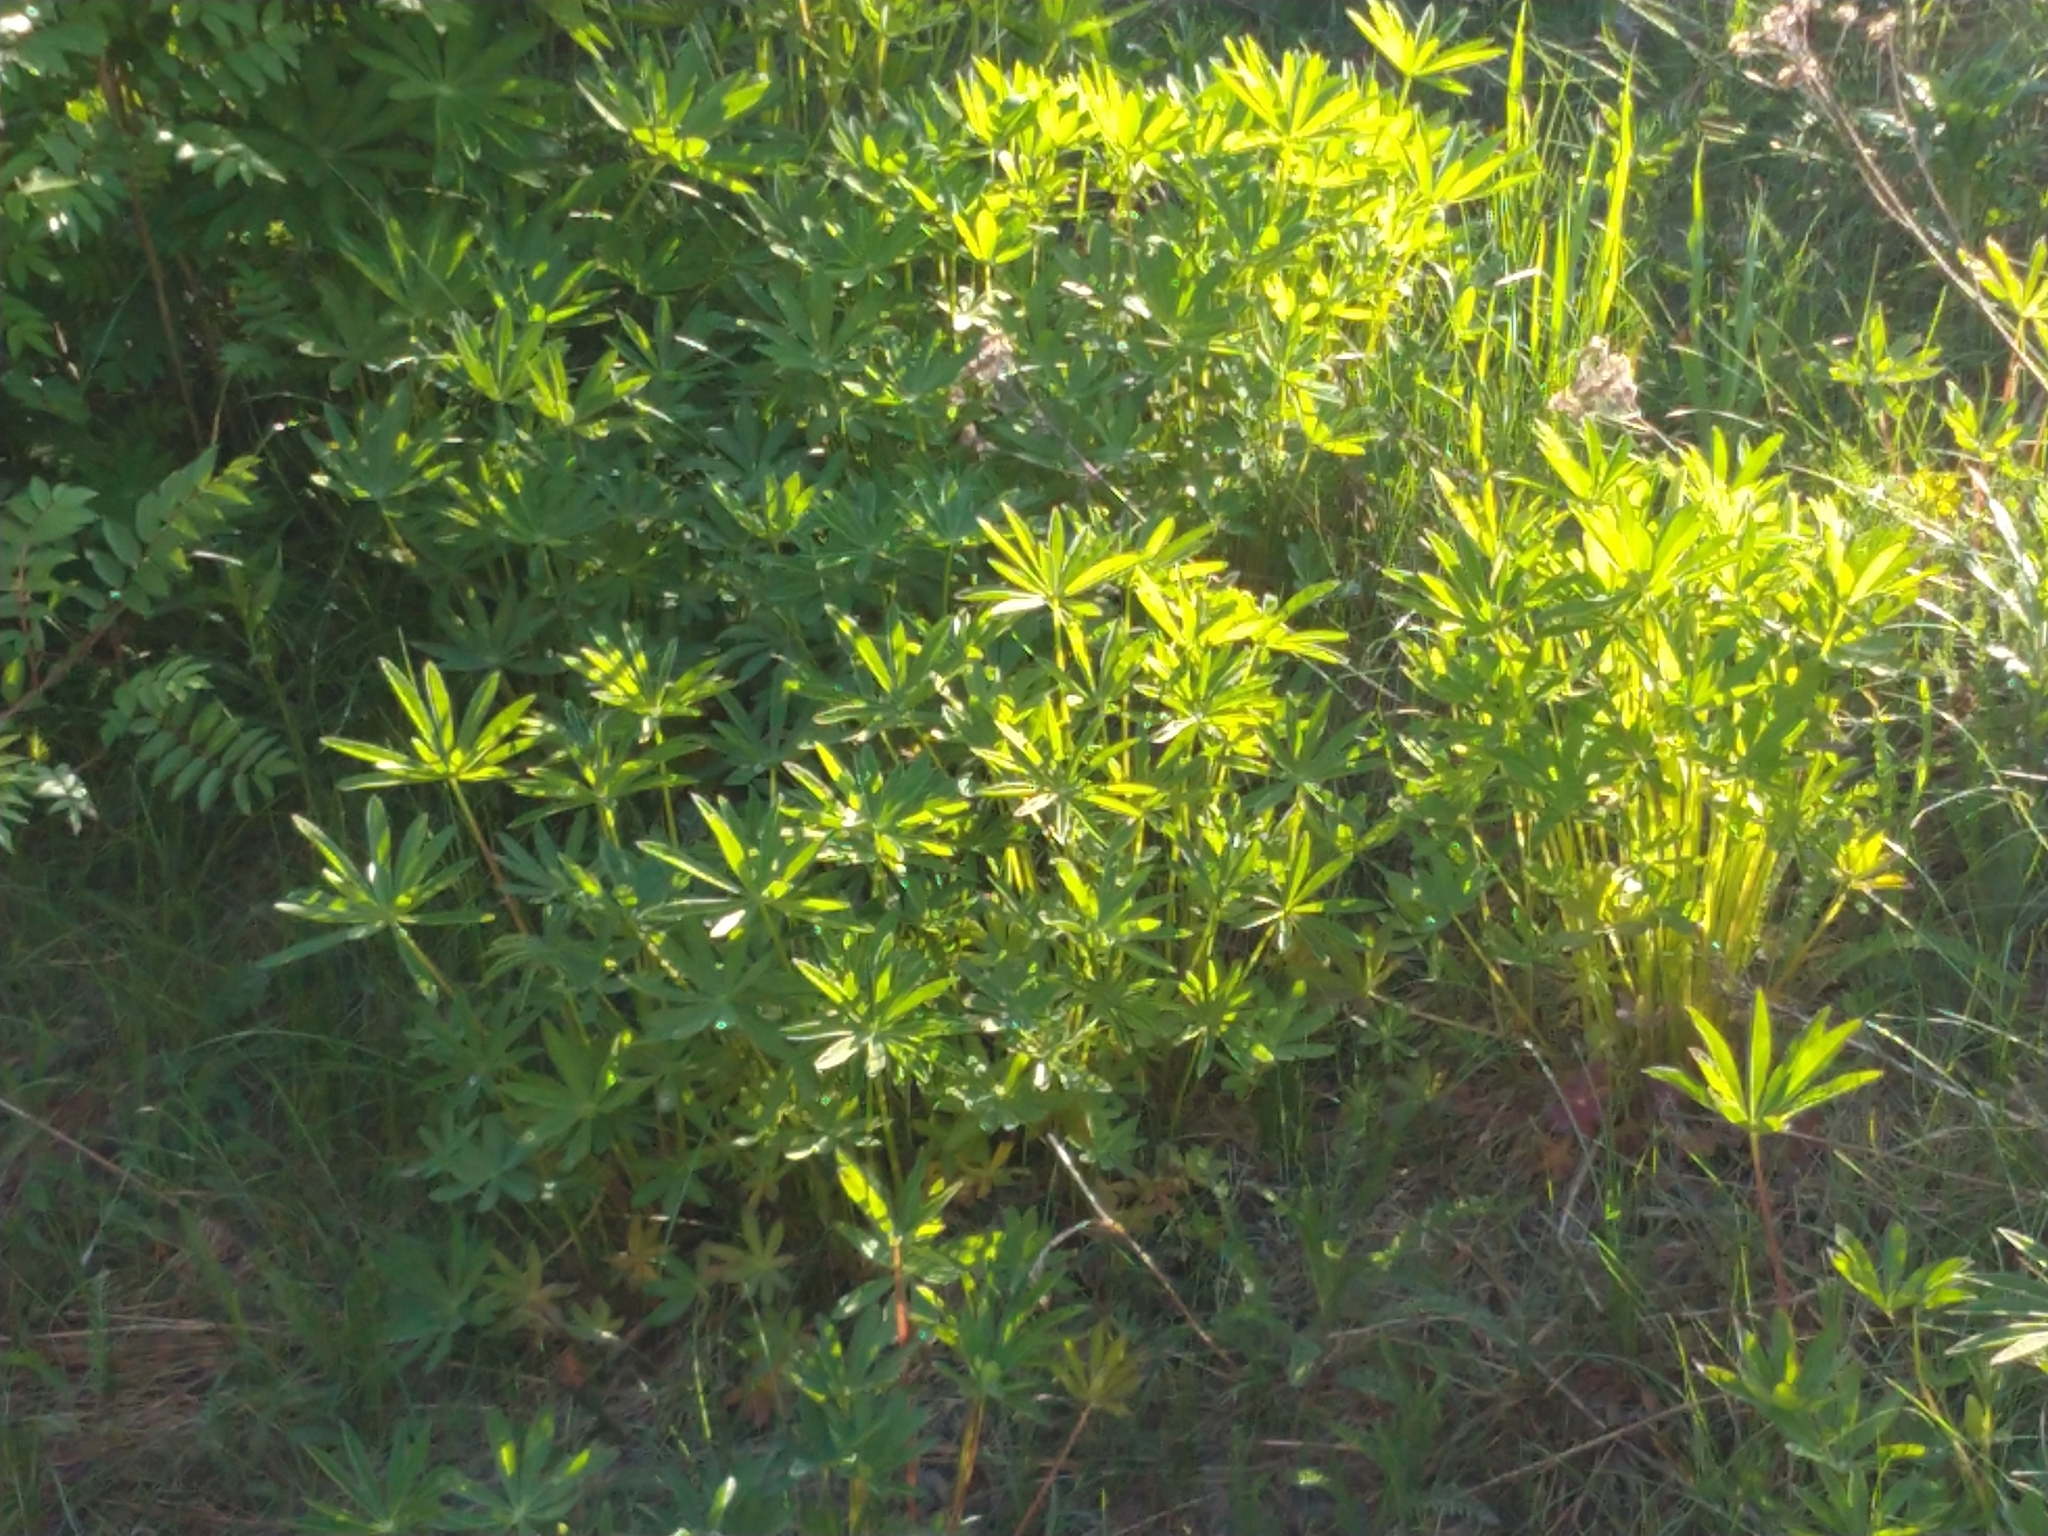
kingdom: Plantae
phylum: Tracheophyta
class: Magnoliopsida
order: Fabales
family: Fabaceae
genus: Lupinus
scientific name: Lupinus polyphyllus
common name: Garden lupin
